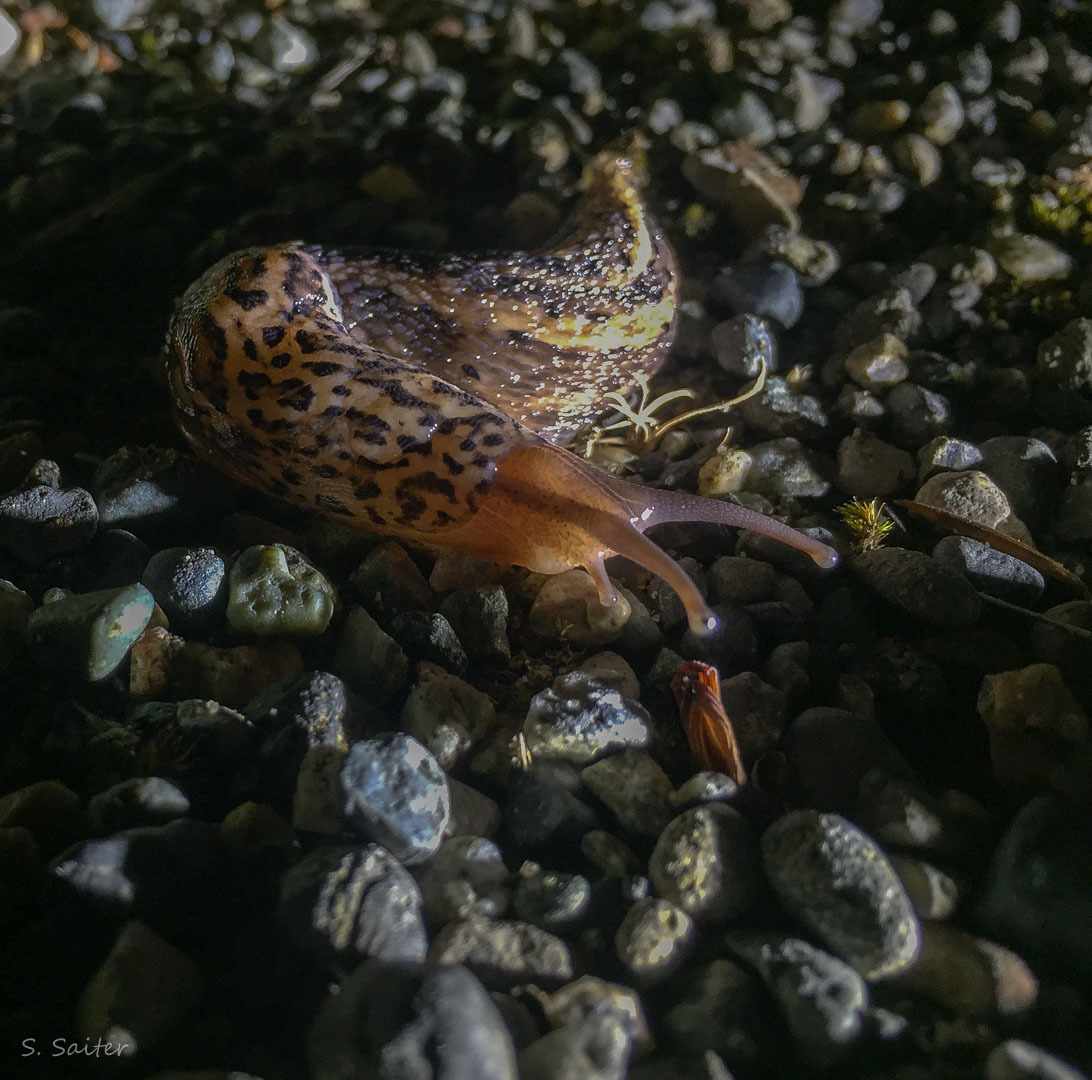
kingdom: Animalia
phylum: Mollusca
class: Gastropoda
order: Stylommatophora
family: Limacidae
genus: Limax
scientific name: Limax maximus
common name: Great grey slug
